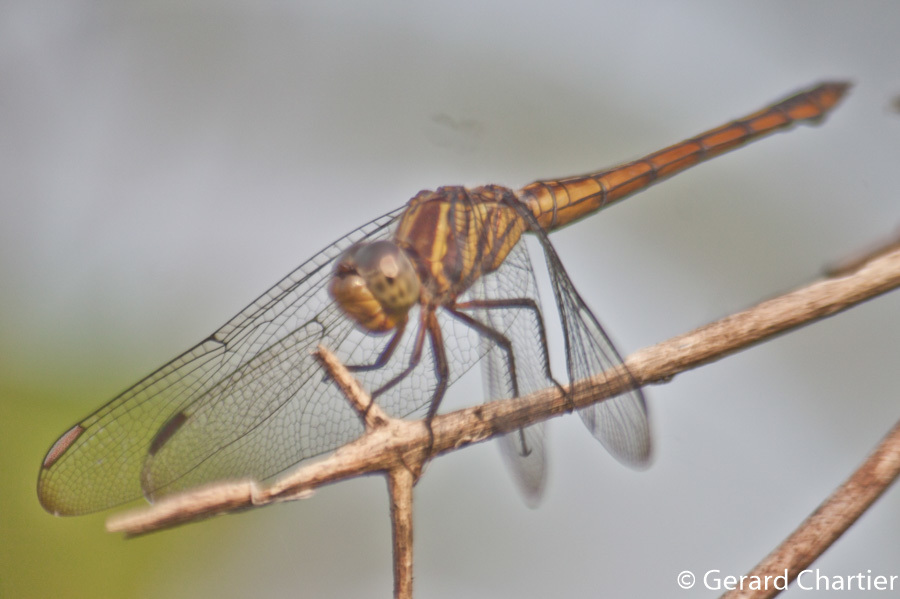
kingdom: Animalia
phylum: Arthropoda
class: Insecta
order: Odonata
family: Libellulidae
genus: Potamarcha
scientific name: Potamarcha congener
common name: Blue chaser
